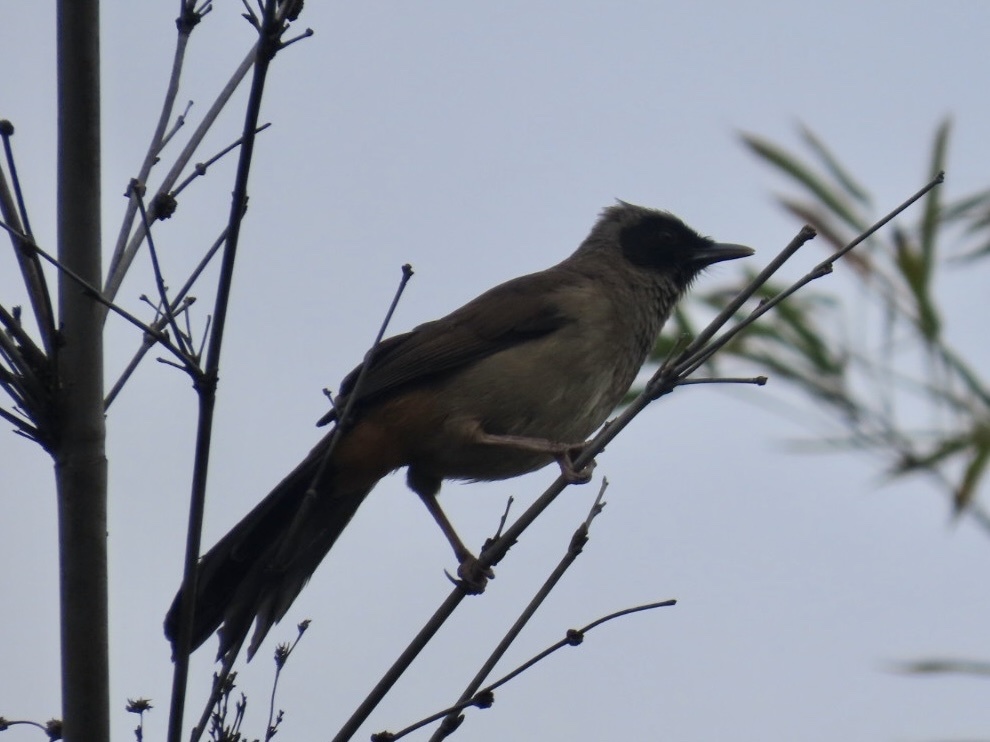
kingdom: Animalia
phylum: Chordata
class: Aves
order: Passeriformes
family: Leiothrichidae
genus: Garrulax
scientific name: Garrulax perspicillatus
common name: Masked laughingthrush
